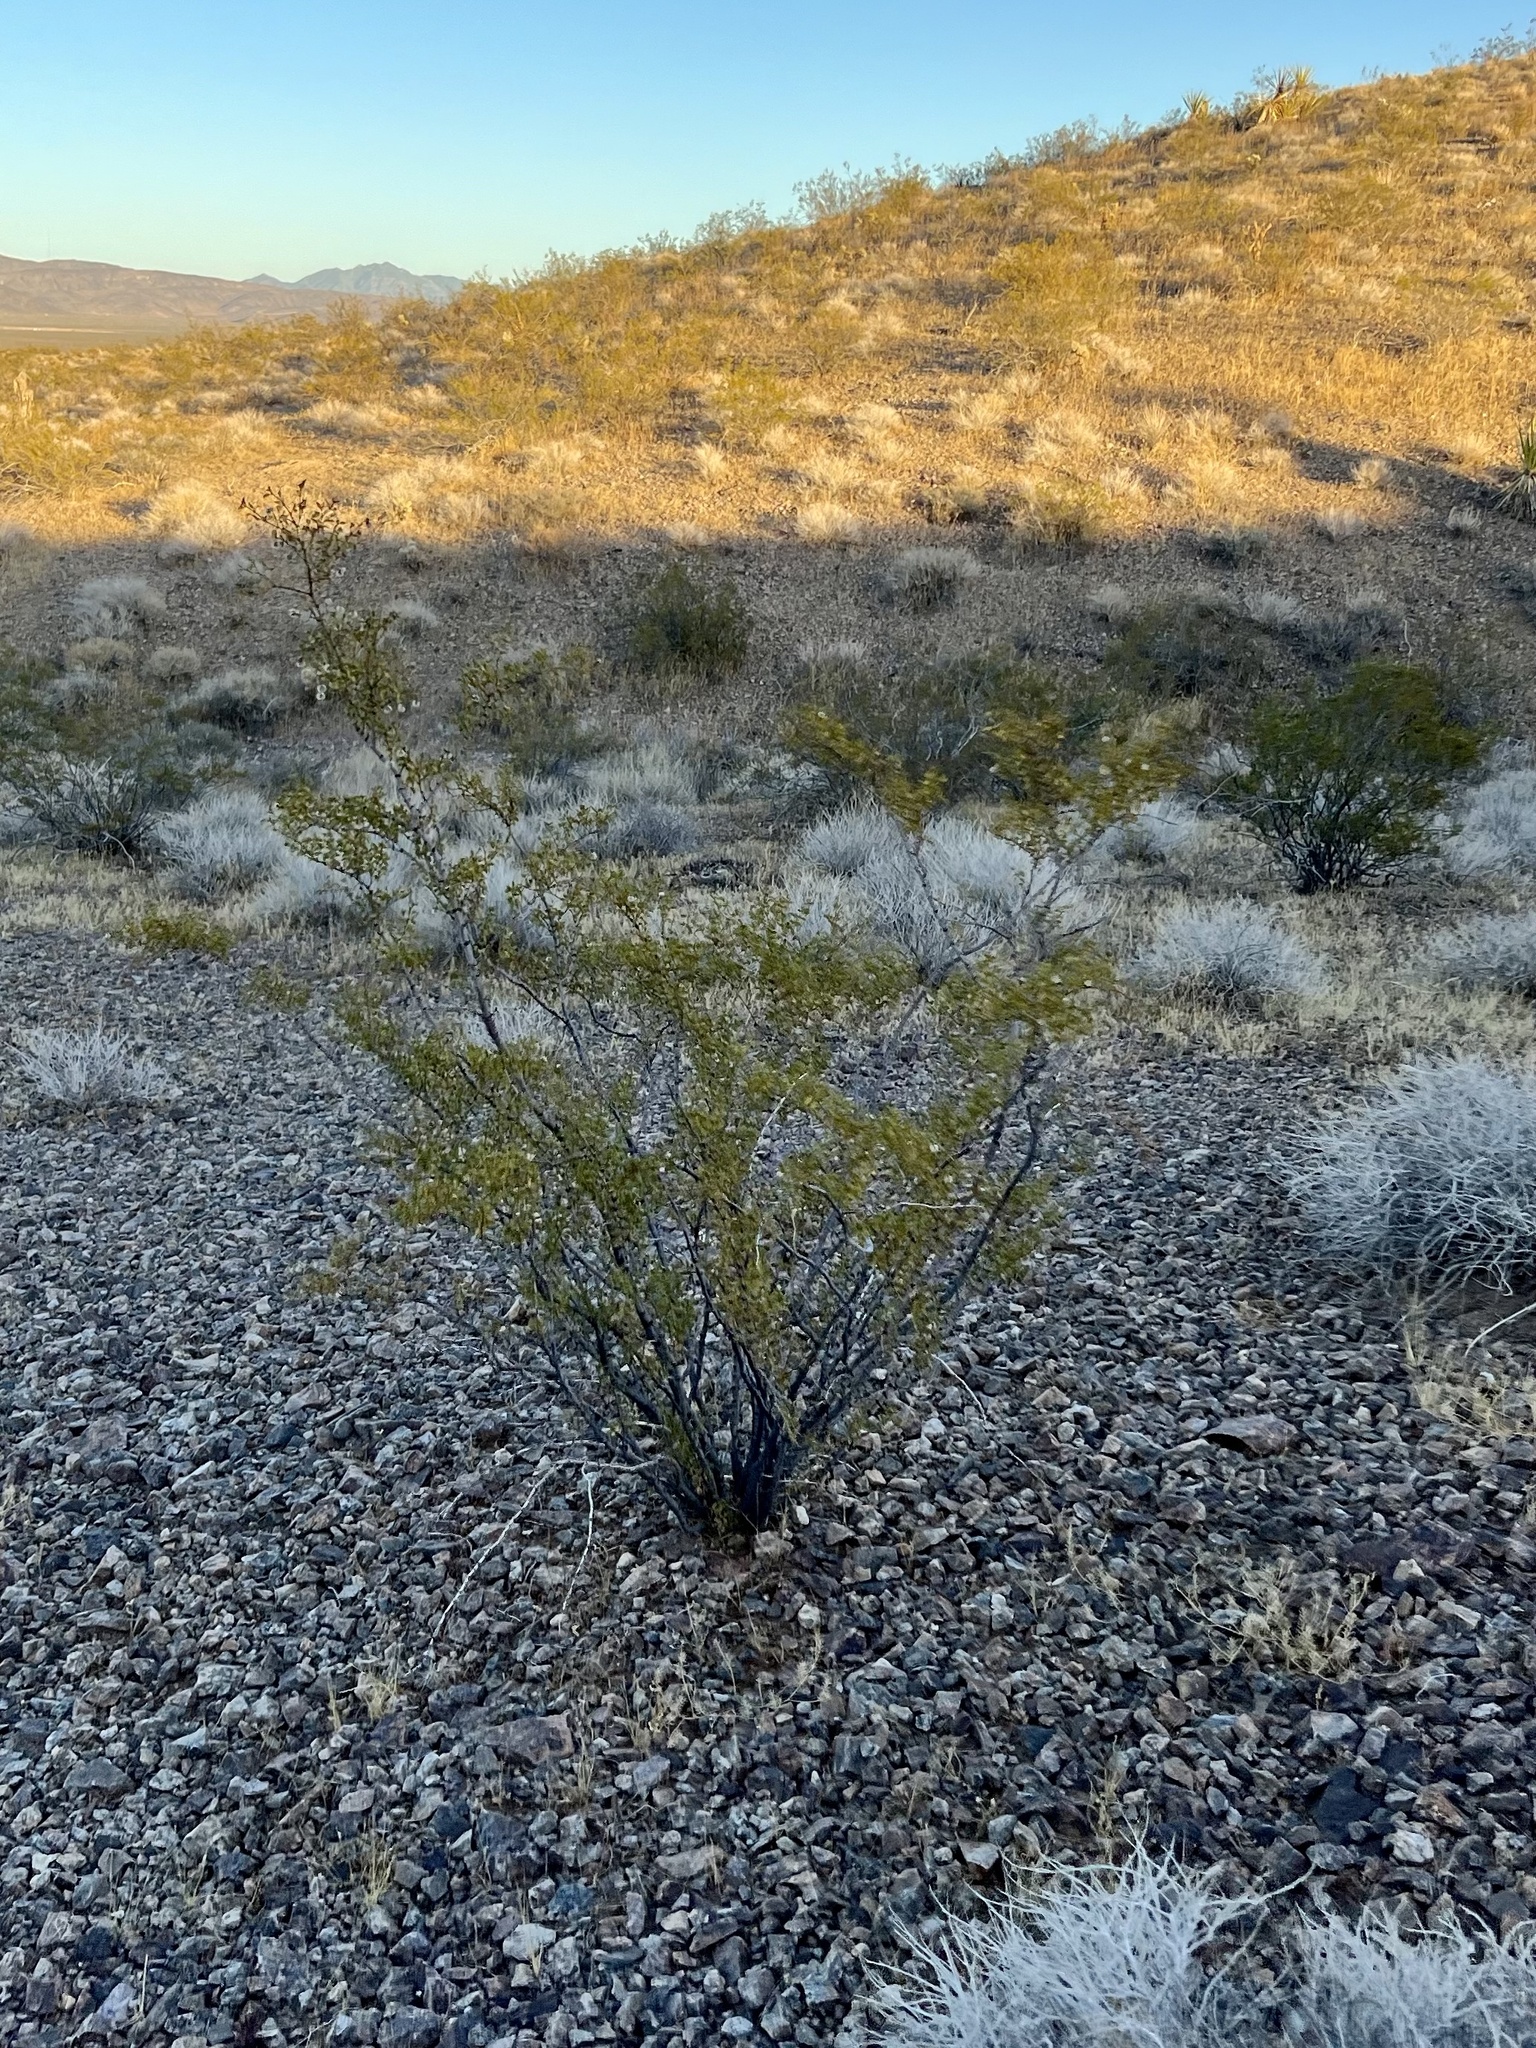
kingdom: Plantae
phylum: Tracheophyta
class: Magnoliopsida
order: Zygophyllales
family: Zygophyllaceae
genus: Larrea
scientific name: Larrea tridentata
